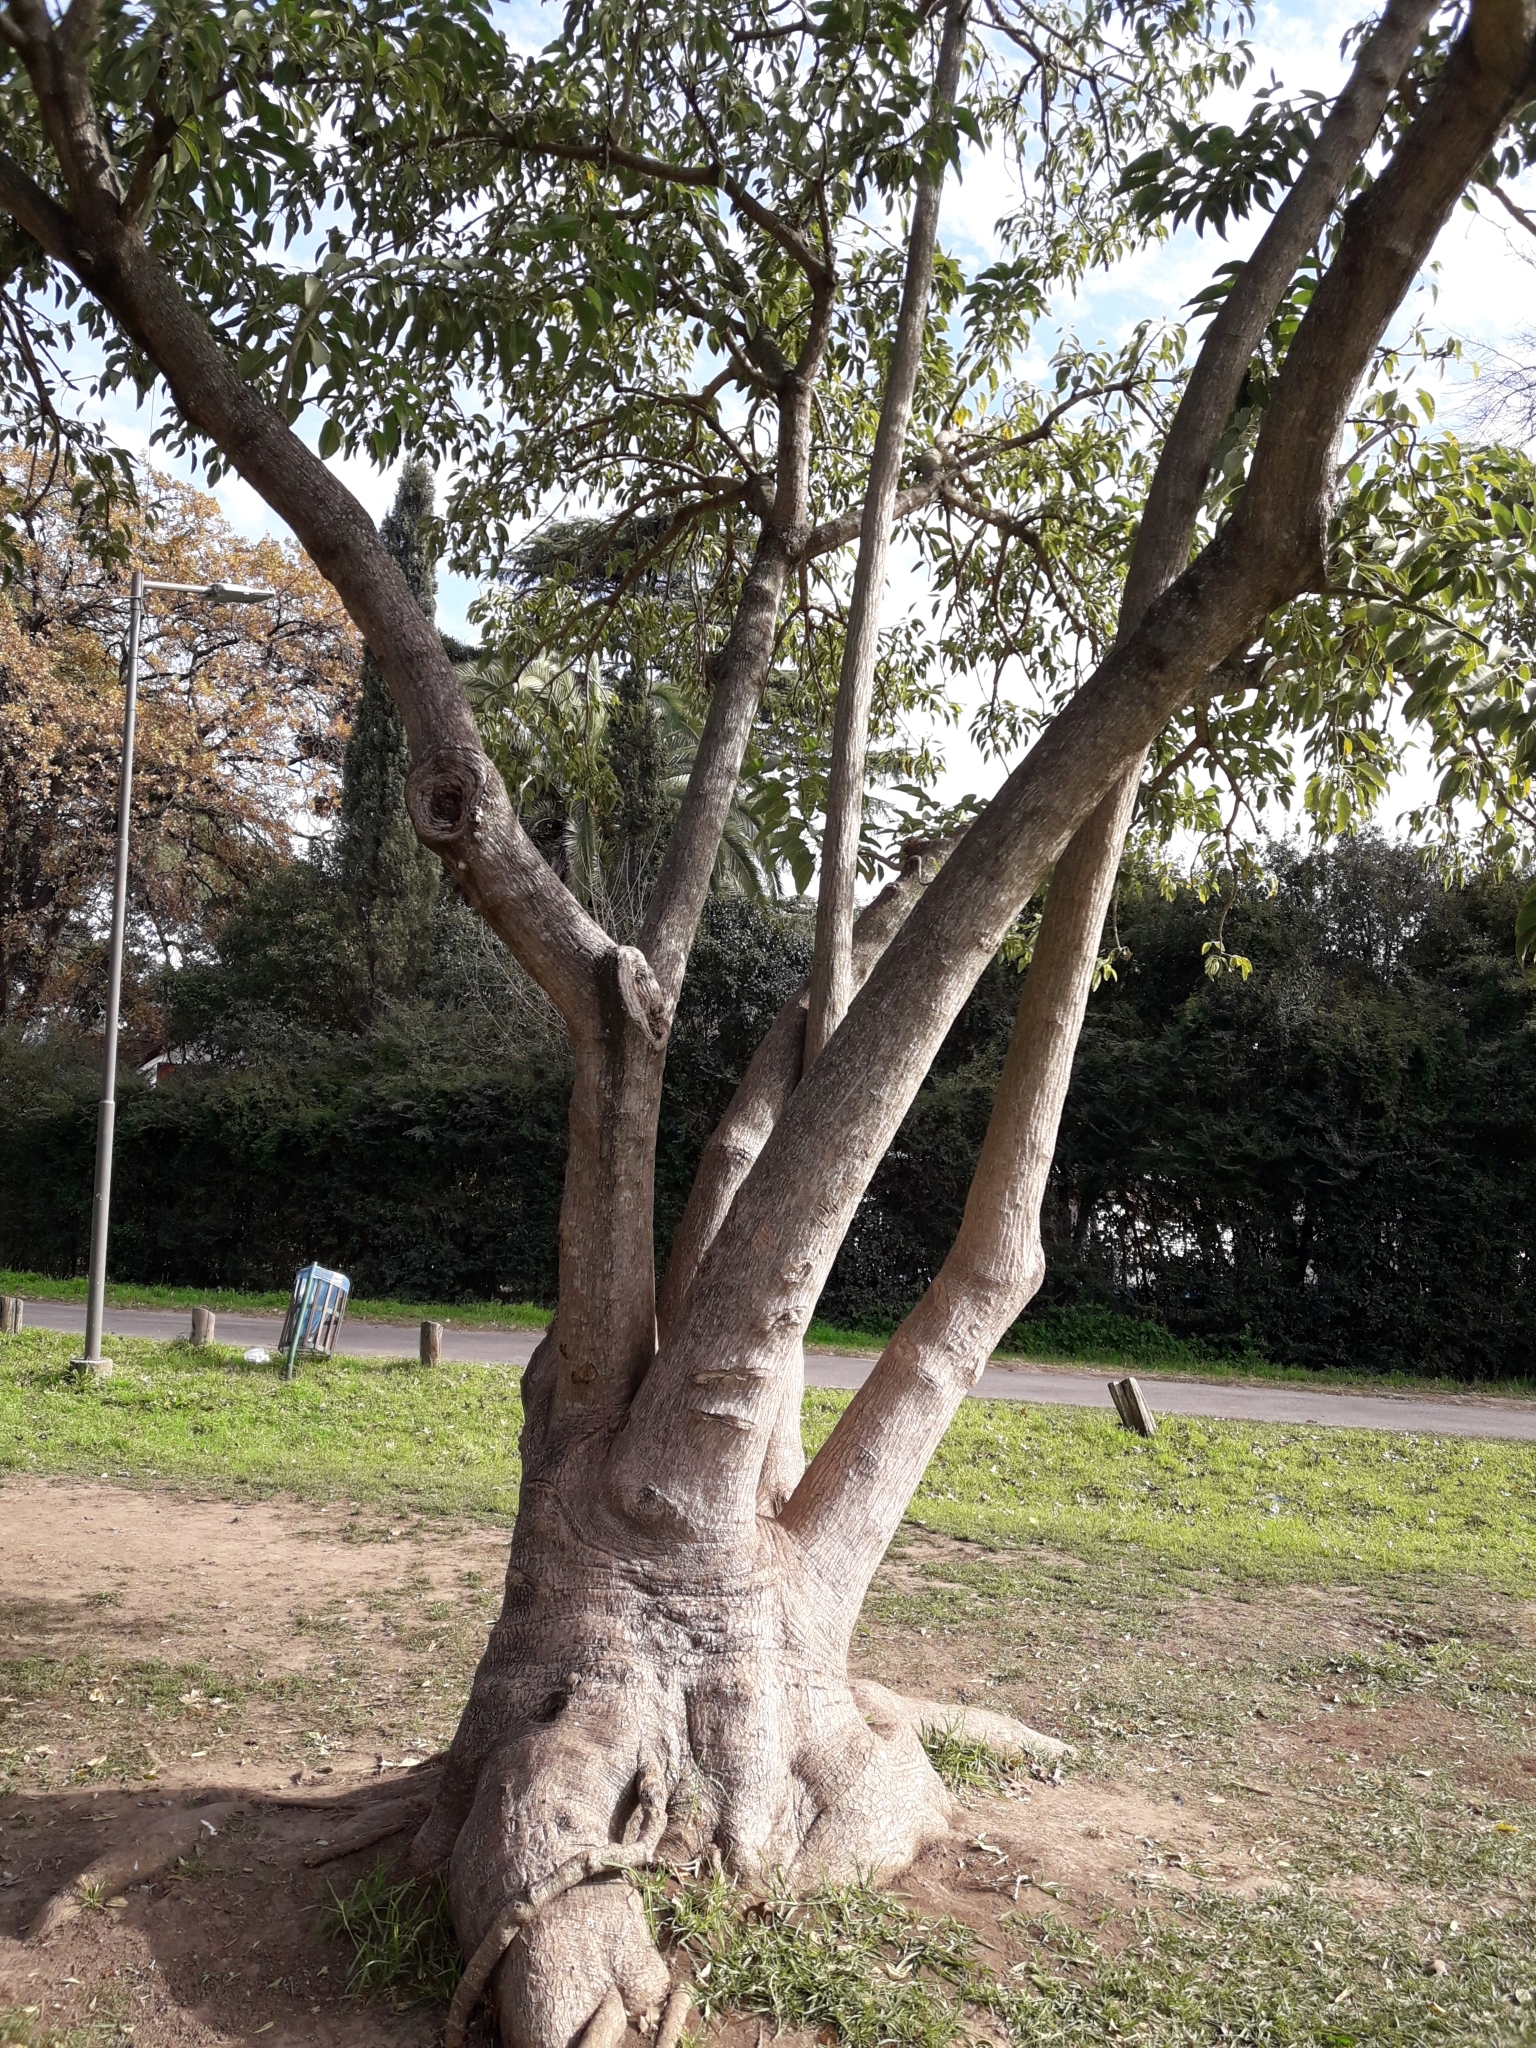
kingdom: Plantae
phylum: Tracheophyta
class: Magnoliopsida
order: Caryophyllales
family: Phytolaccaceae
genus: Phytolacca
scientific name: Phytolacca dioica
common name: Pokeweed
